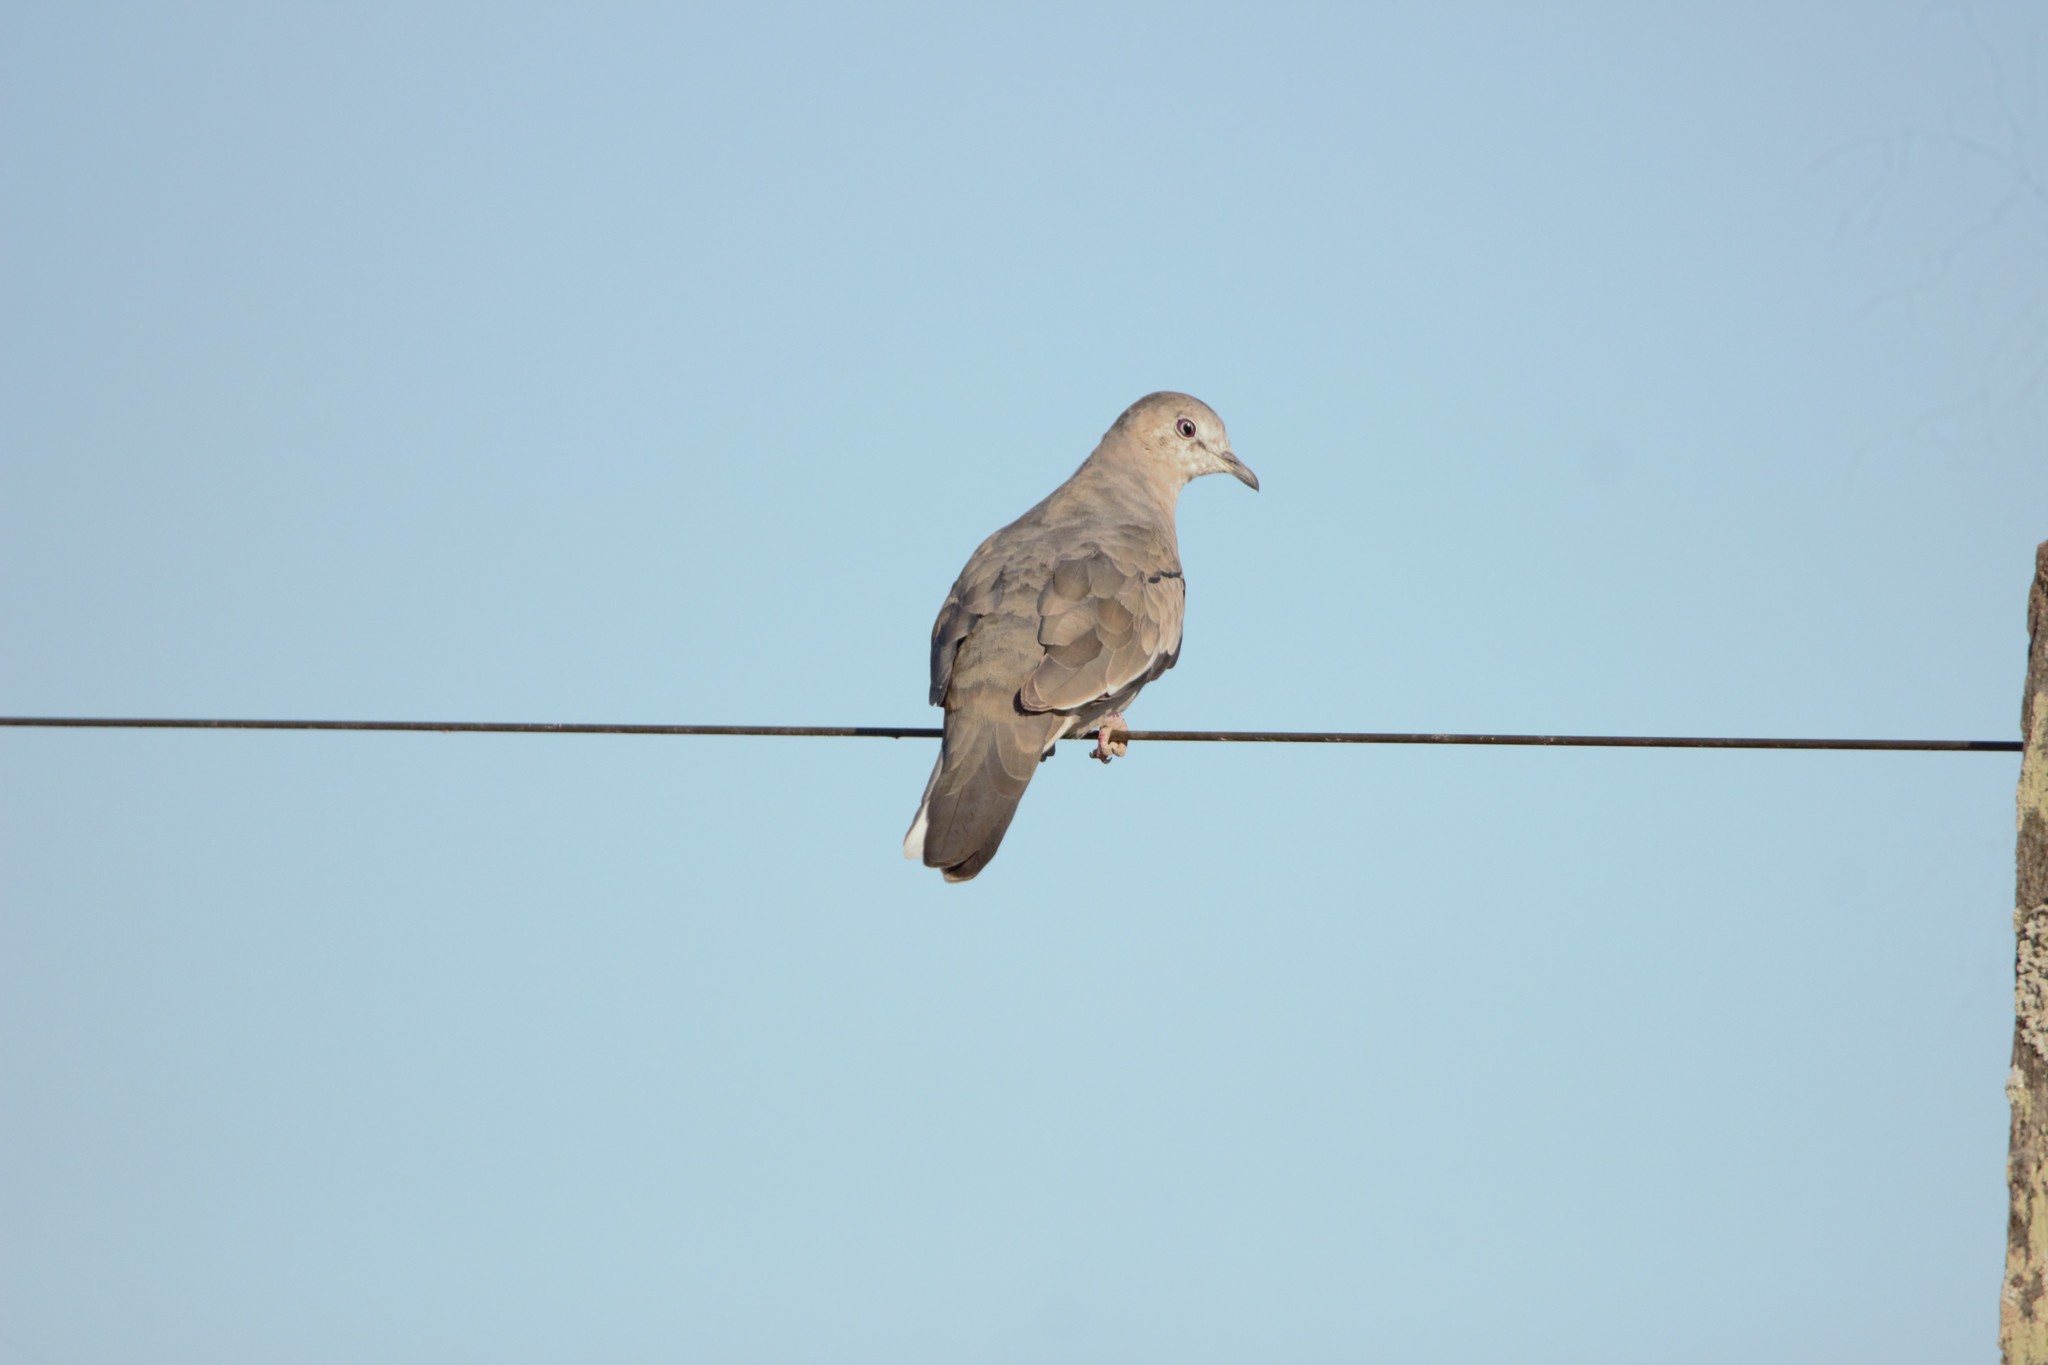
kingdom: Animalia
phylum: Chordata
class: Aves
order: Columbiformes
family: Columbidae
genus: Columbina
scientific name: Columbina picui
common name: Picui ground dove
